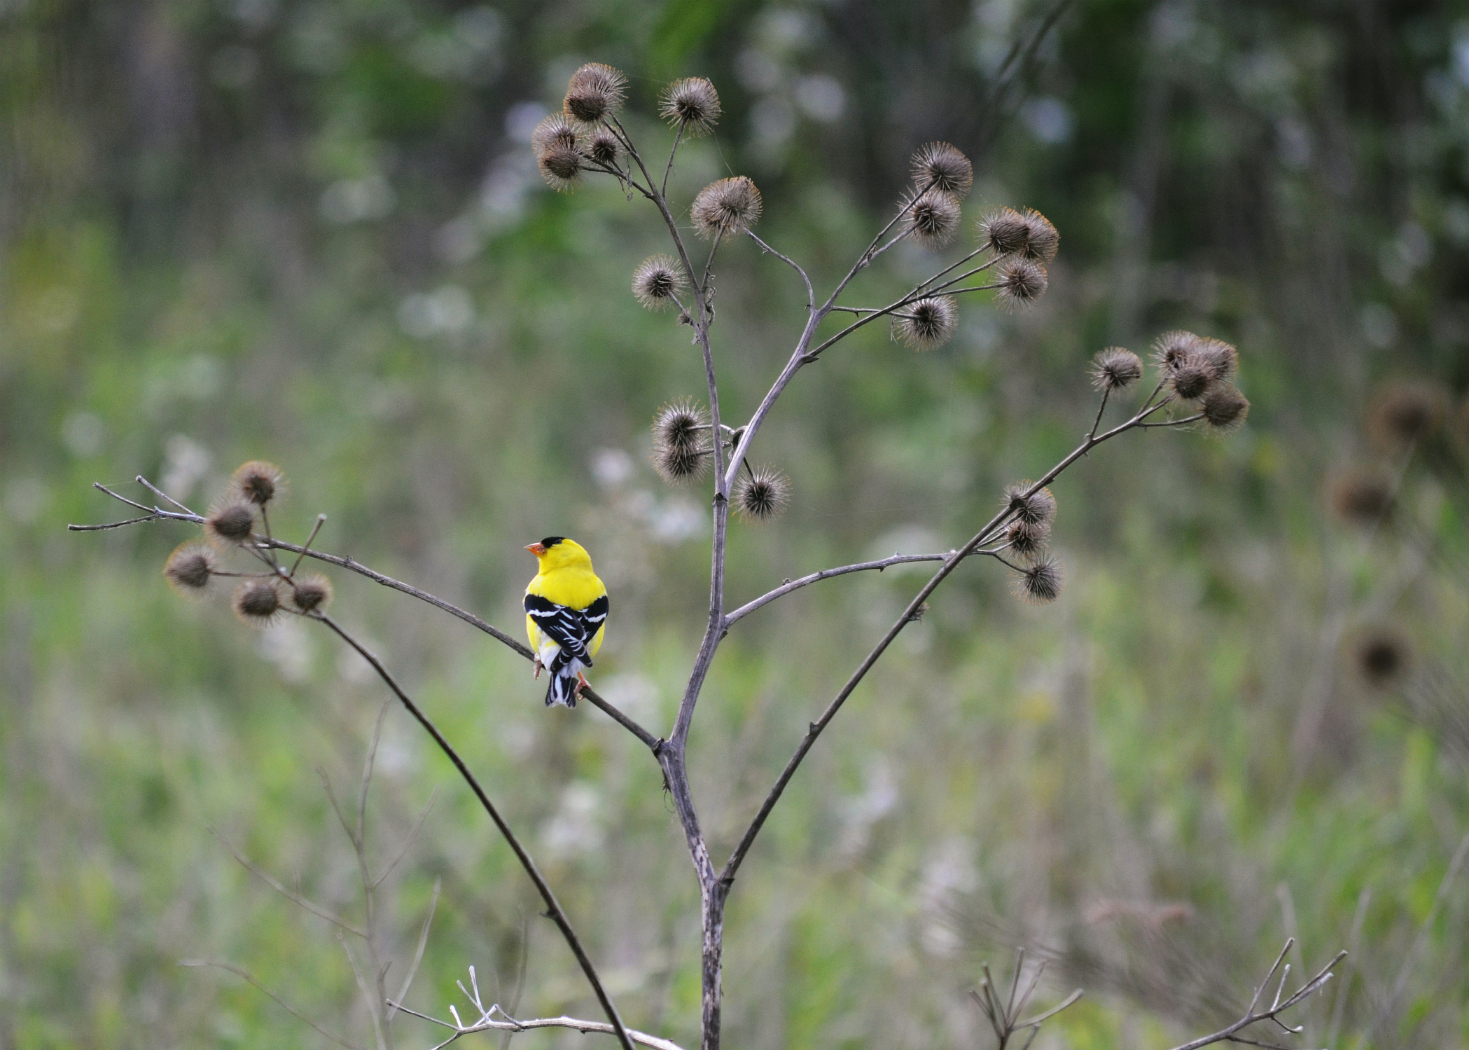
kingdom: Animalia
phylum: Chordata
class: Aves
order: Passeriformes
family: Fringillidae
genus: Spinus
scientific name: Spinus tristis
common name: American goldfinch
